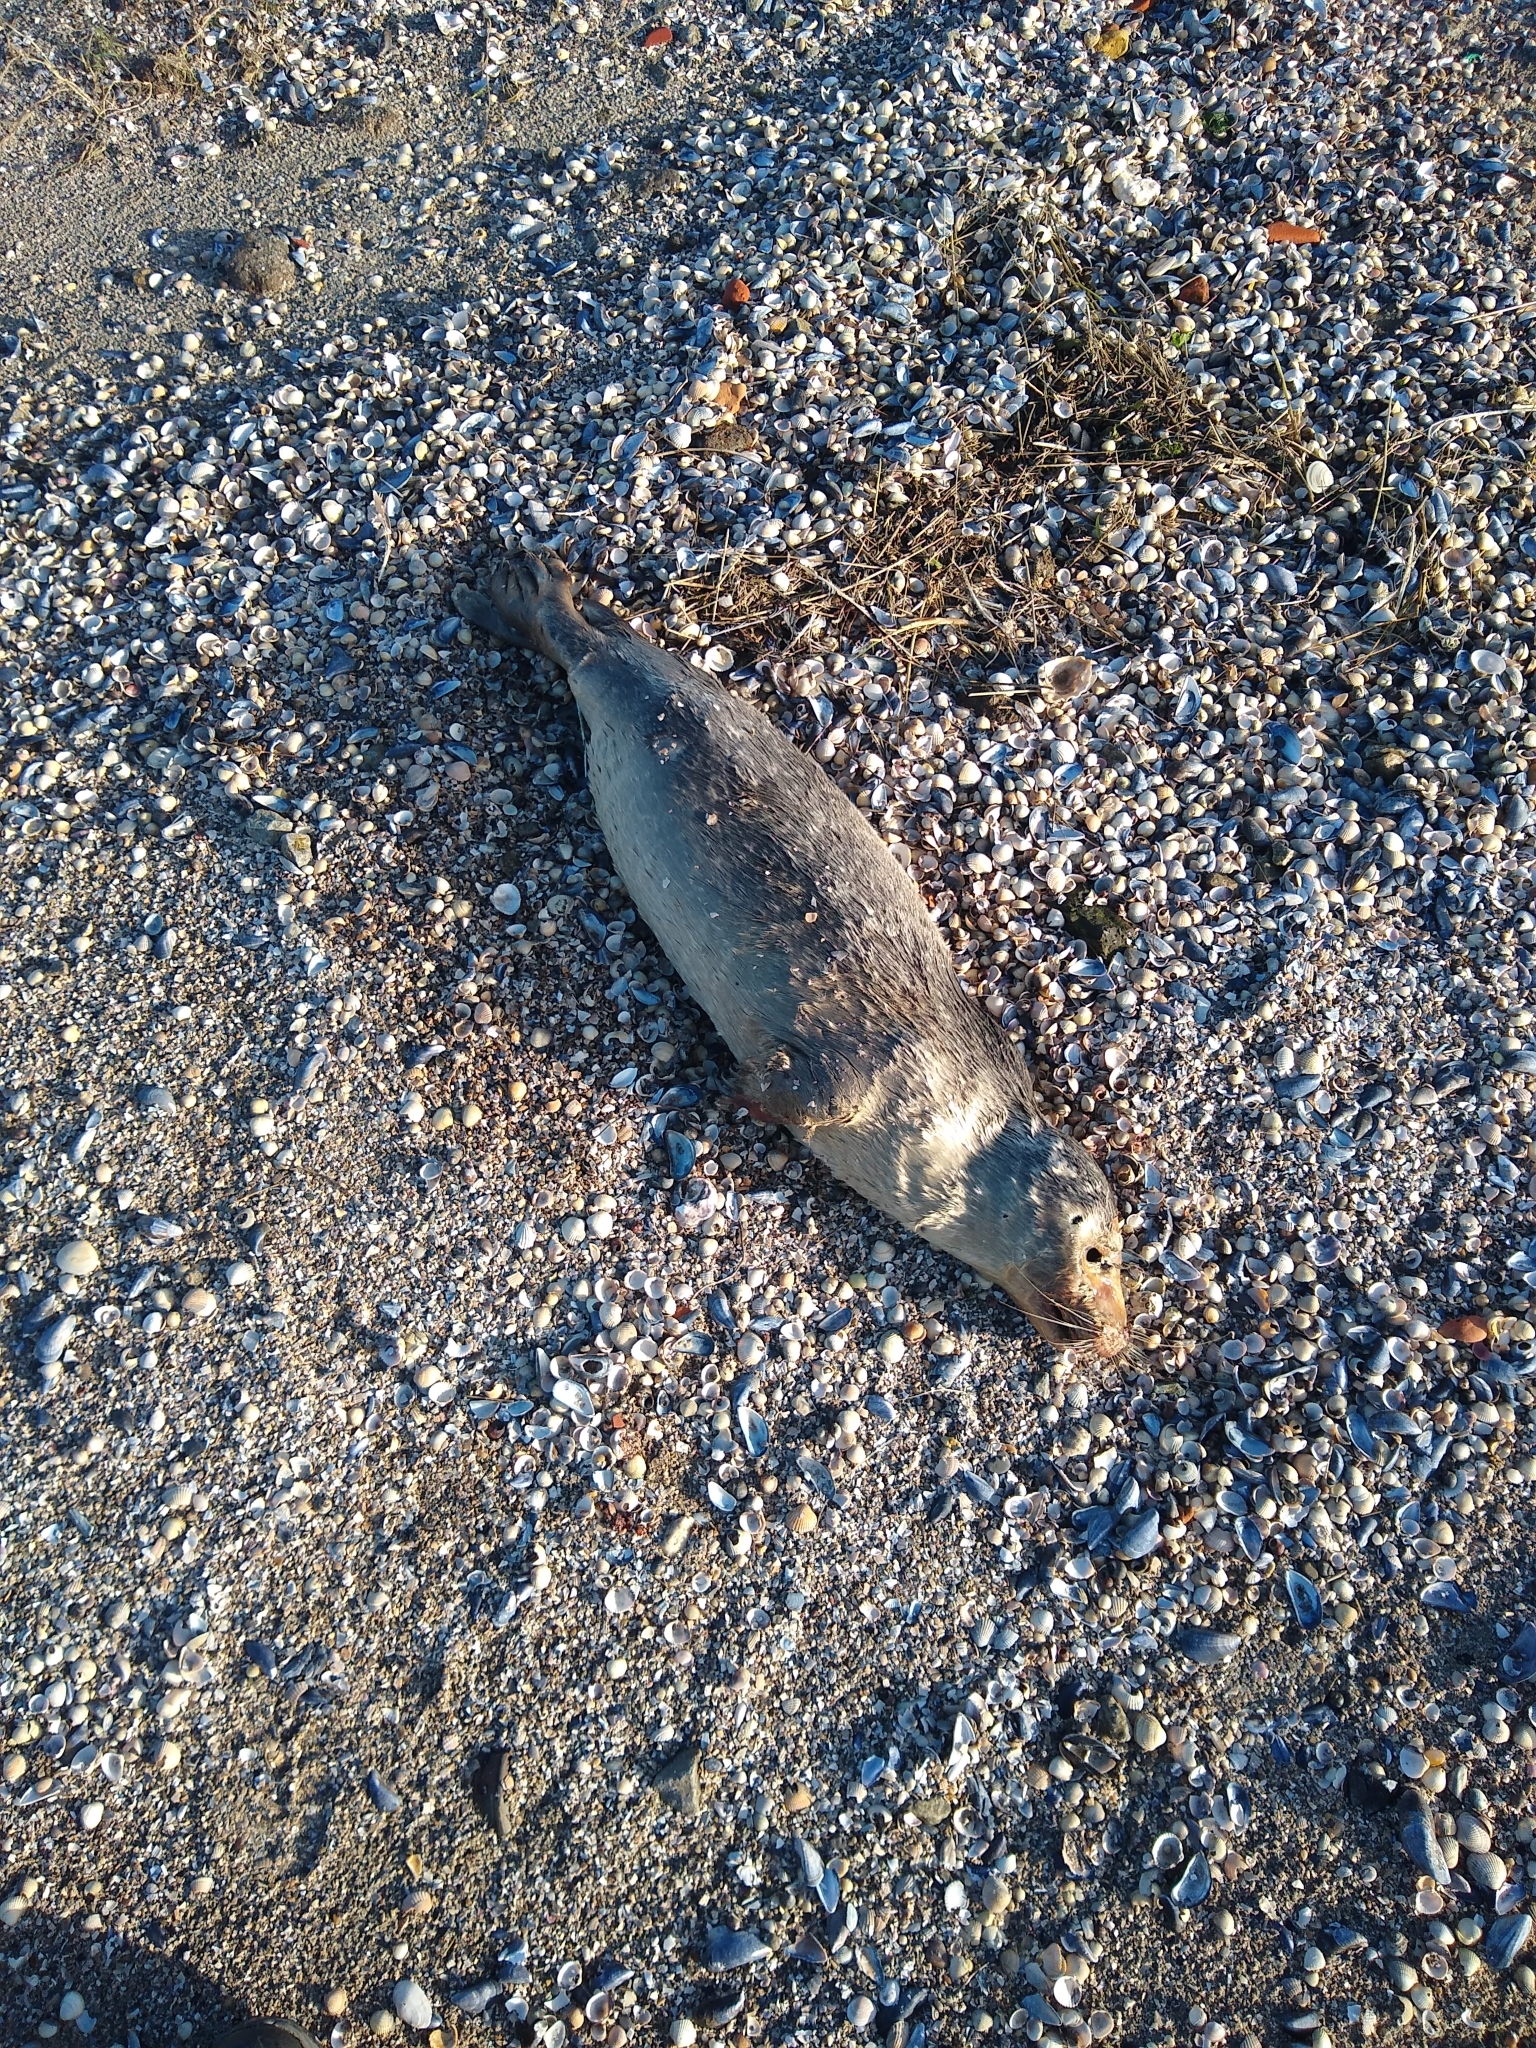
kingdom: Animalia
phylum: Chordata
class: Mammalia
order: Carnivora
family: Phocidae
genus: Phoca
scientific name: Phoca vitulina
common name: Harbor seal
